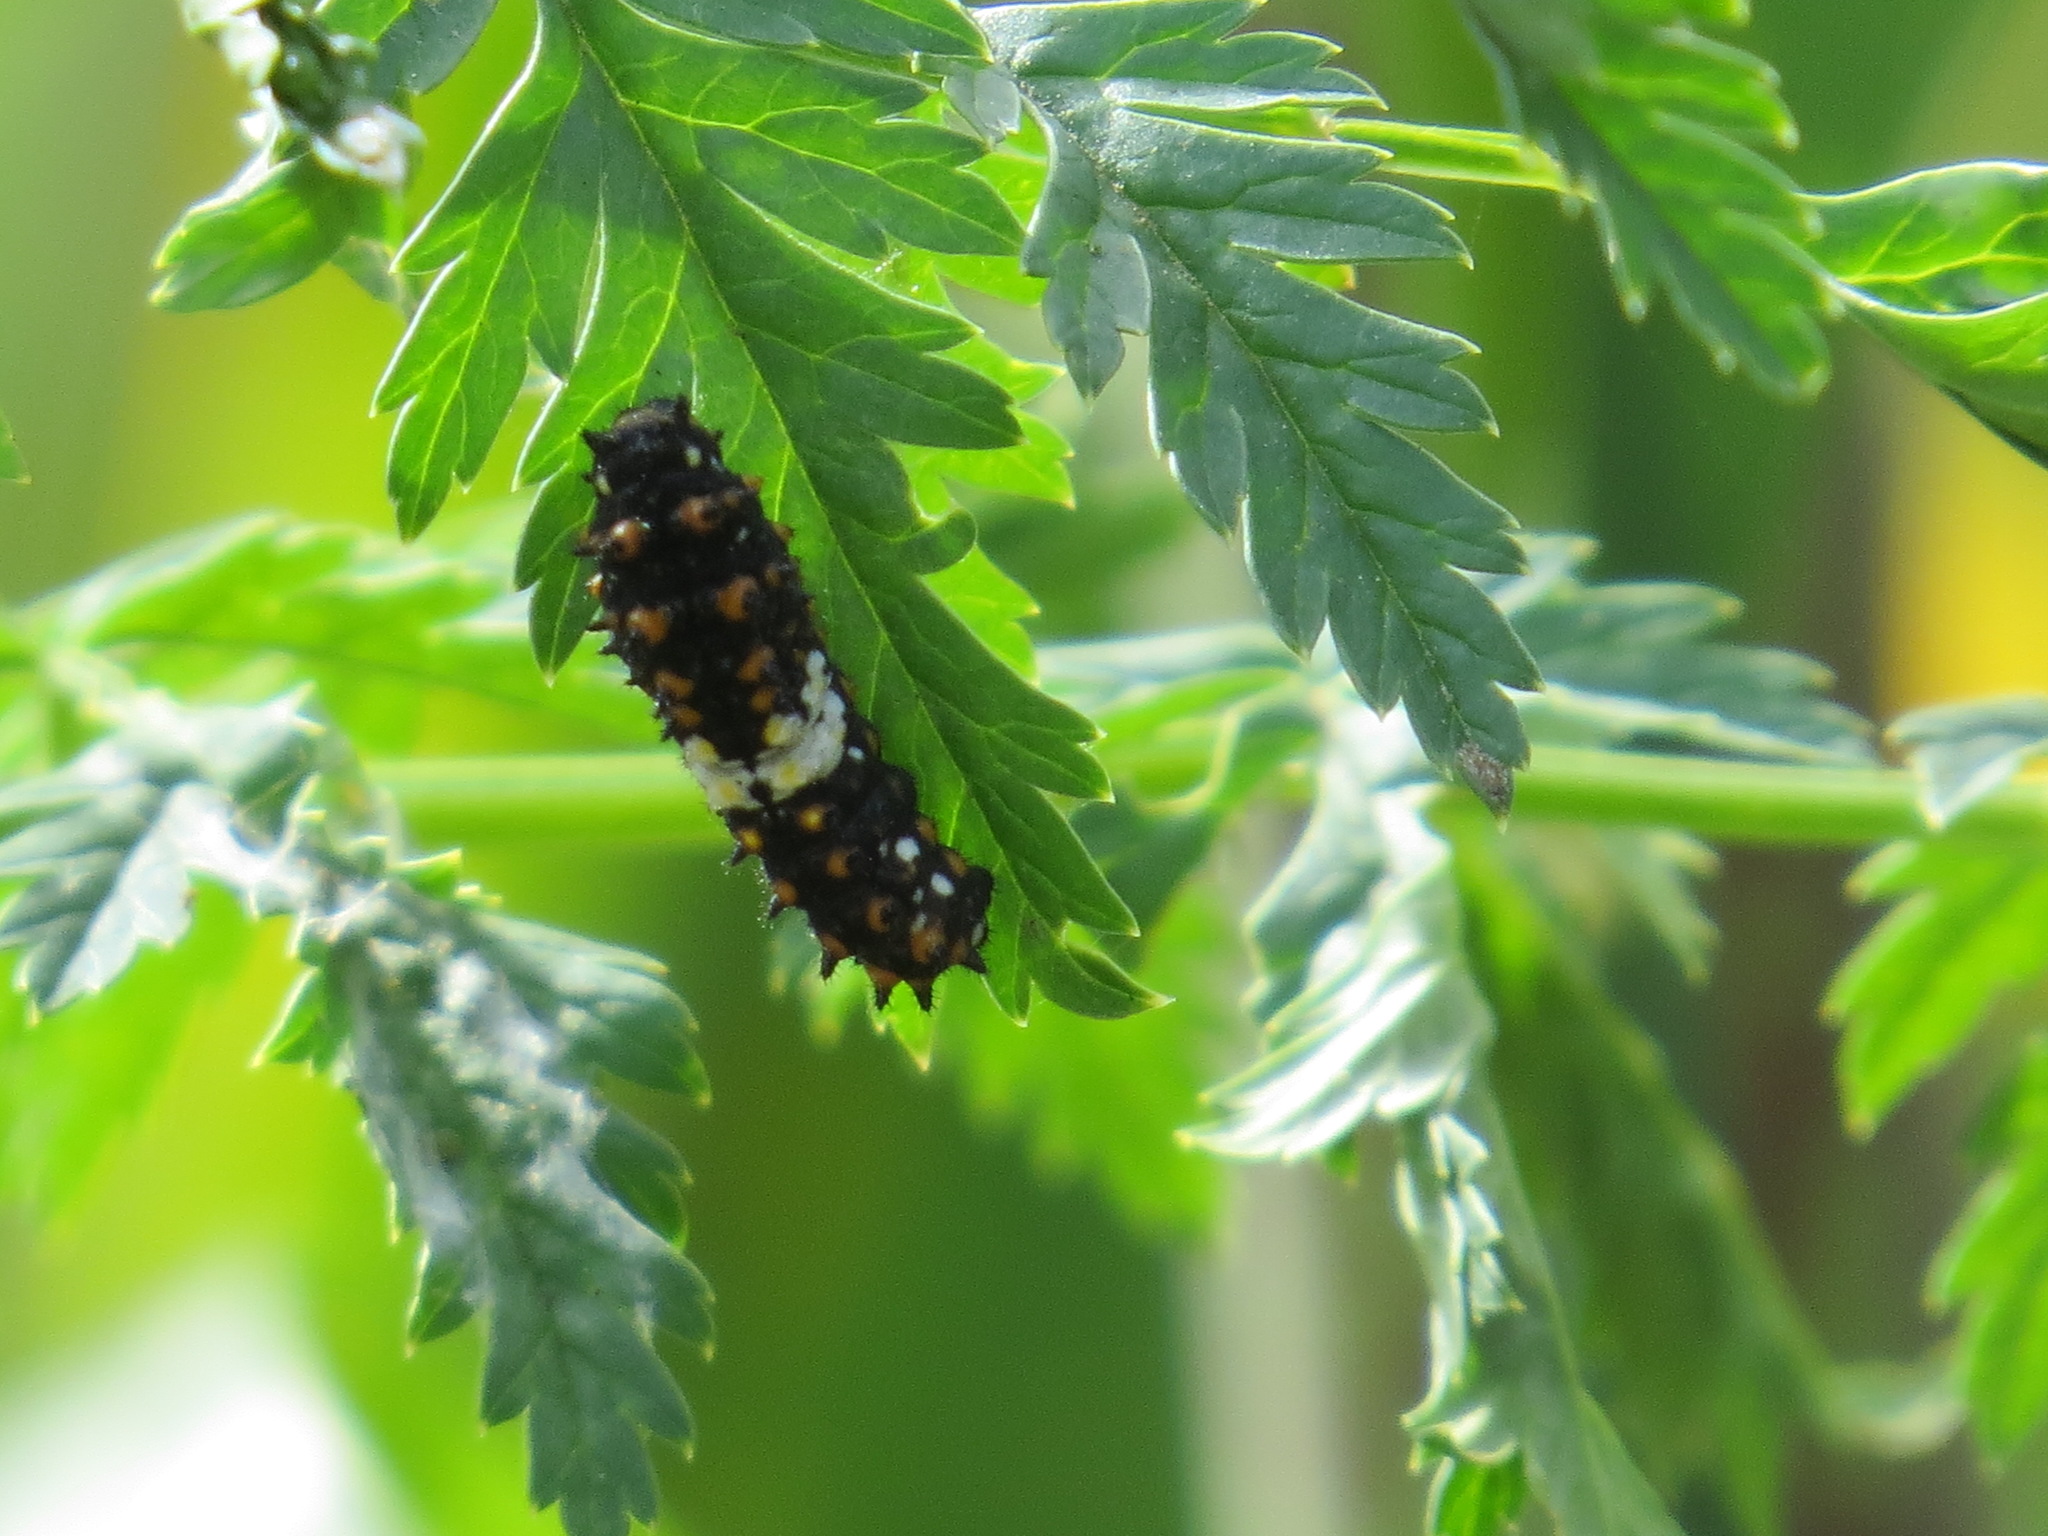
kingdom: Animalia
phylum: Arthropoda
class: Insecta
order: Lepidoptera
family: Papilionidae
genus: Papilio
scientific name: Papilio zelicaon
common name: Anise swallowtail
